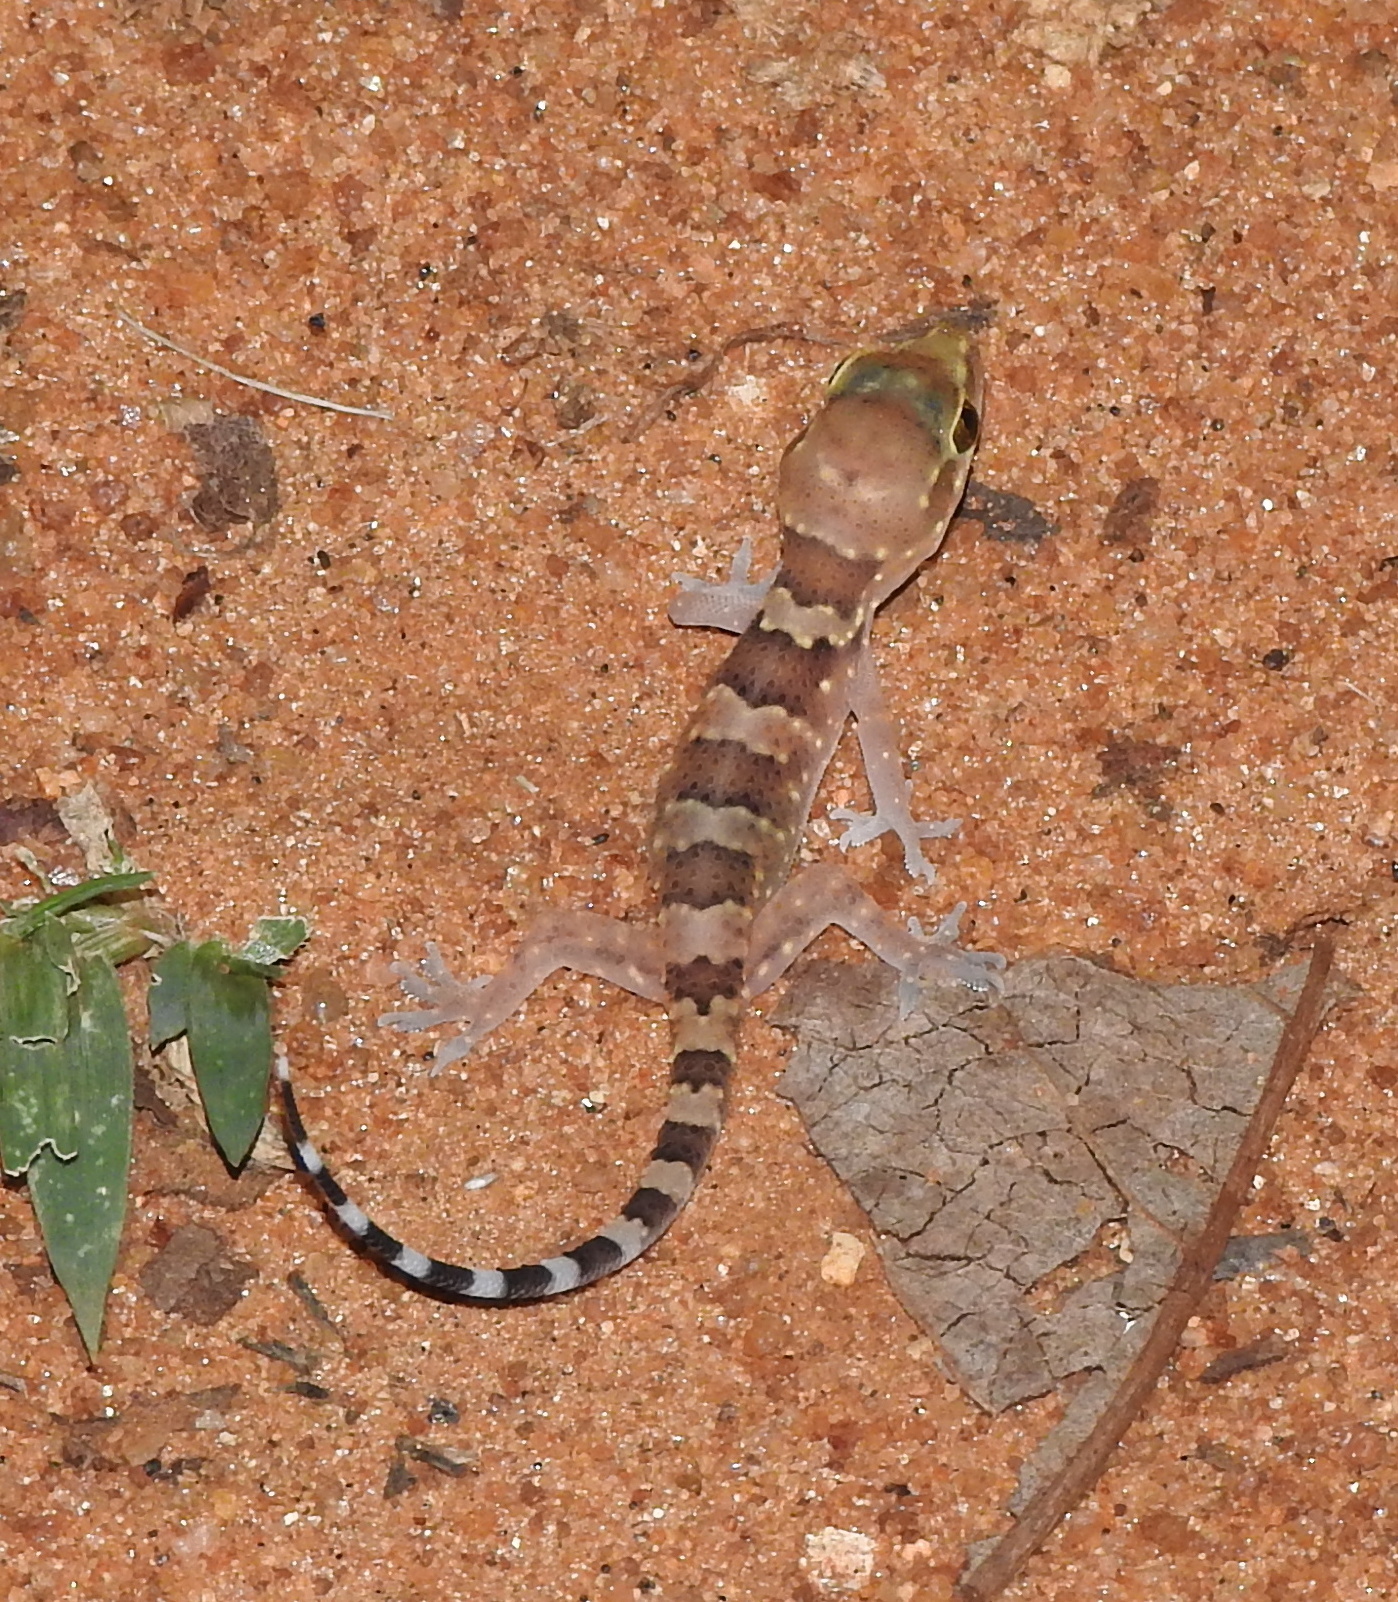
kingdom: Animalia
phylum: Chordata
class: Squamata
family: Gekkonidae
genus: Hemidactylus
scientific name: Hemidactylus triedrus
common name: Blotched house gecko
